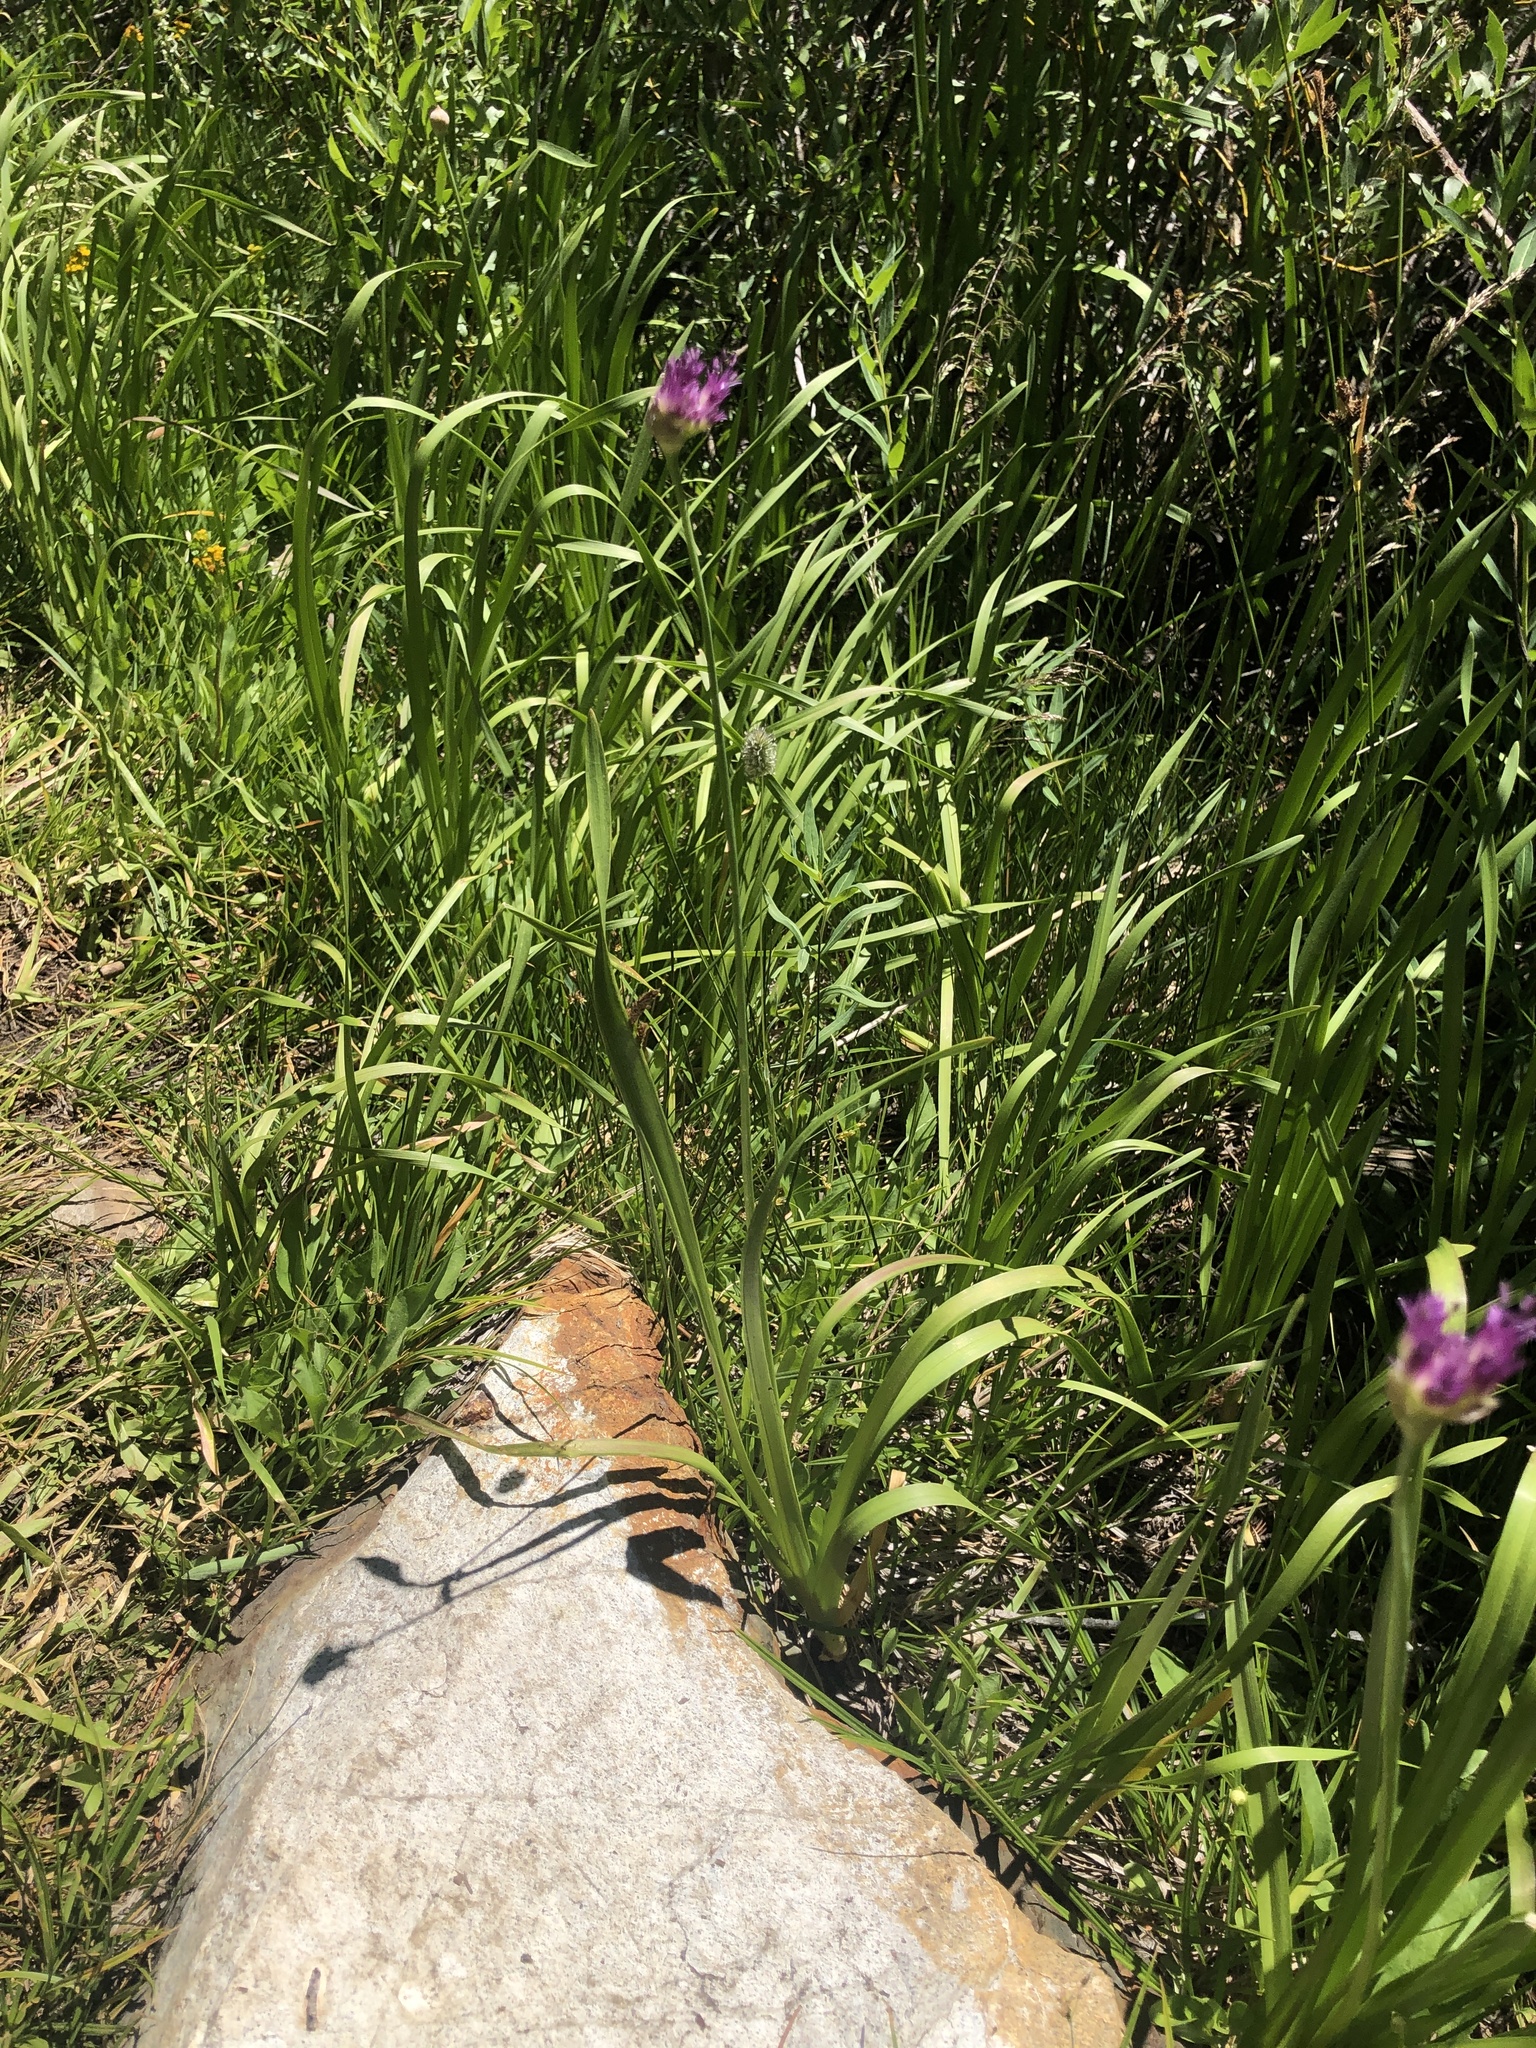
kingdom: Plantae
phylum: Tracheophyta
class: Liliopsida
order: Asparagales
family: Amaryllidaceae
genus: Allium
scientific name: Allium validum
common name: Pacific mountain onion
